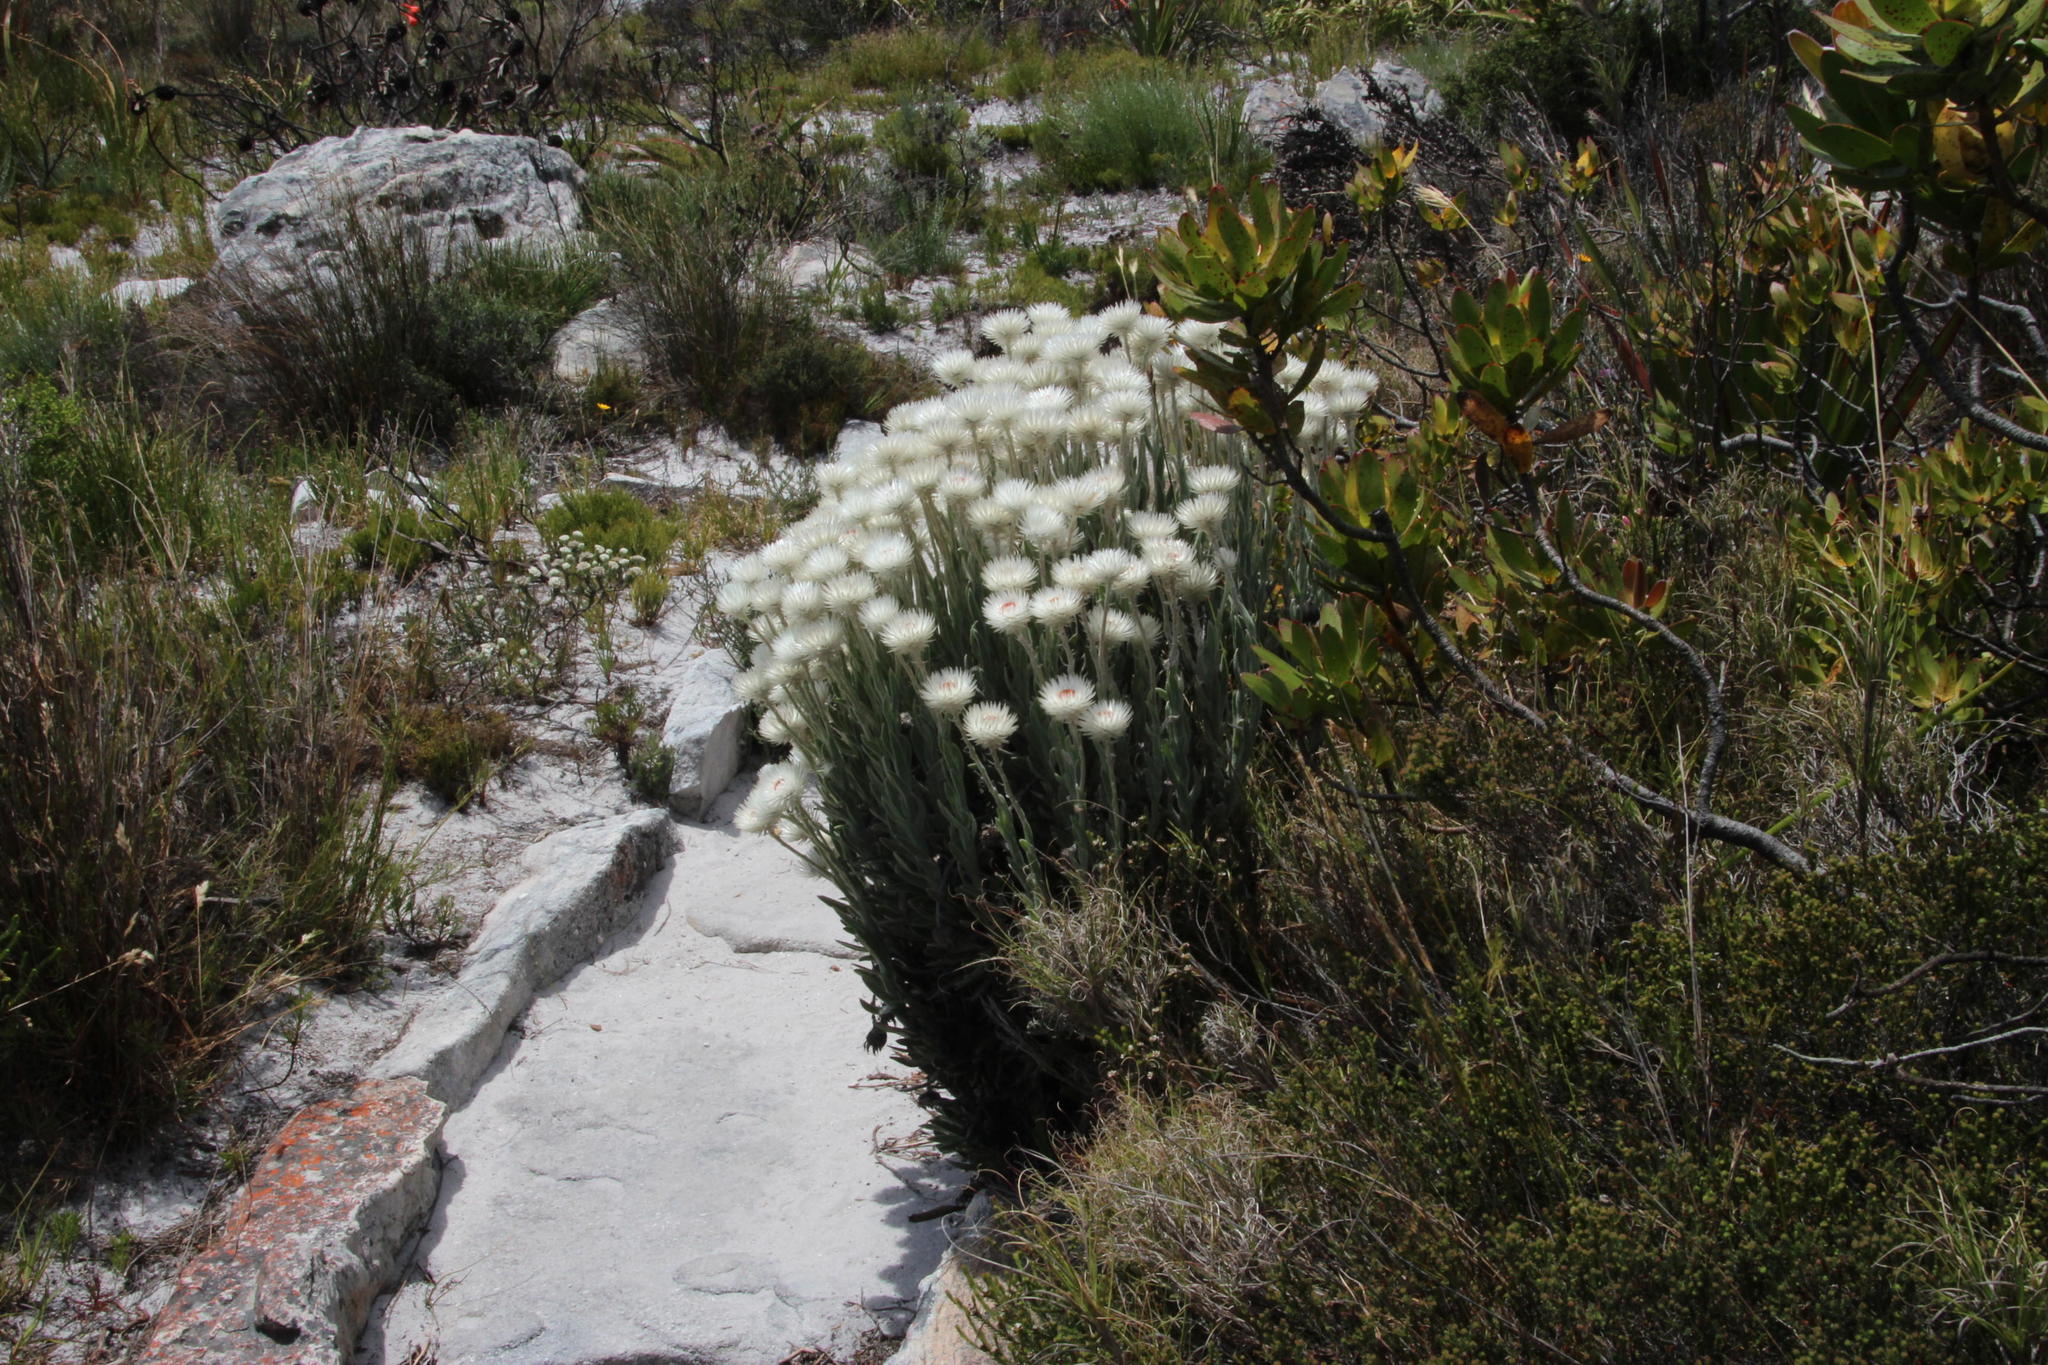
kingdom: Plantae
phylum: Tracheophyta
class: Magnoliopsida
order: Asterales
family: Asteraceae
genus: Syncarpha
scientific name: Syncarpha vestita
